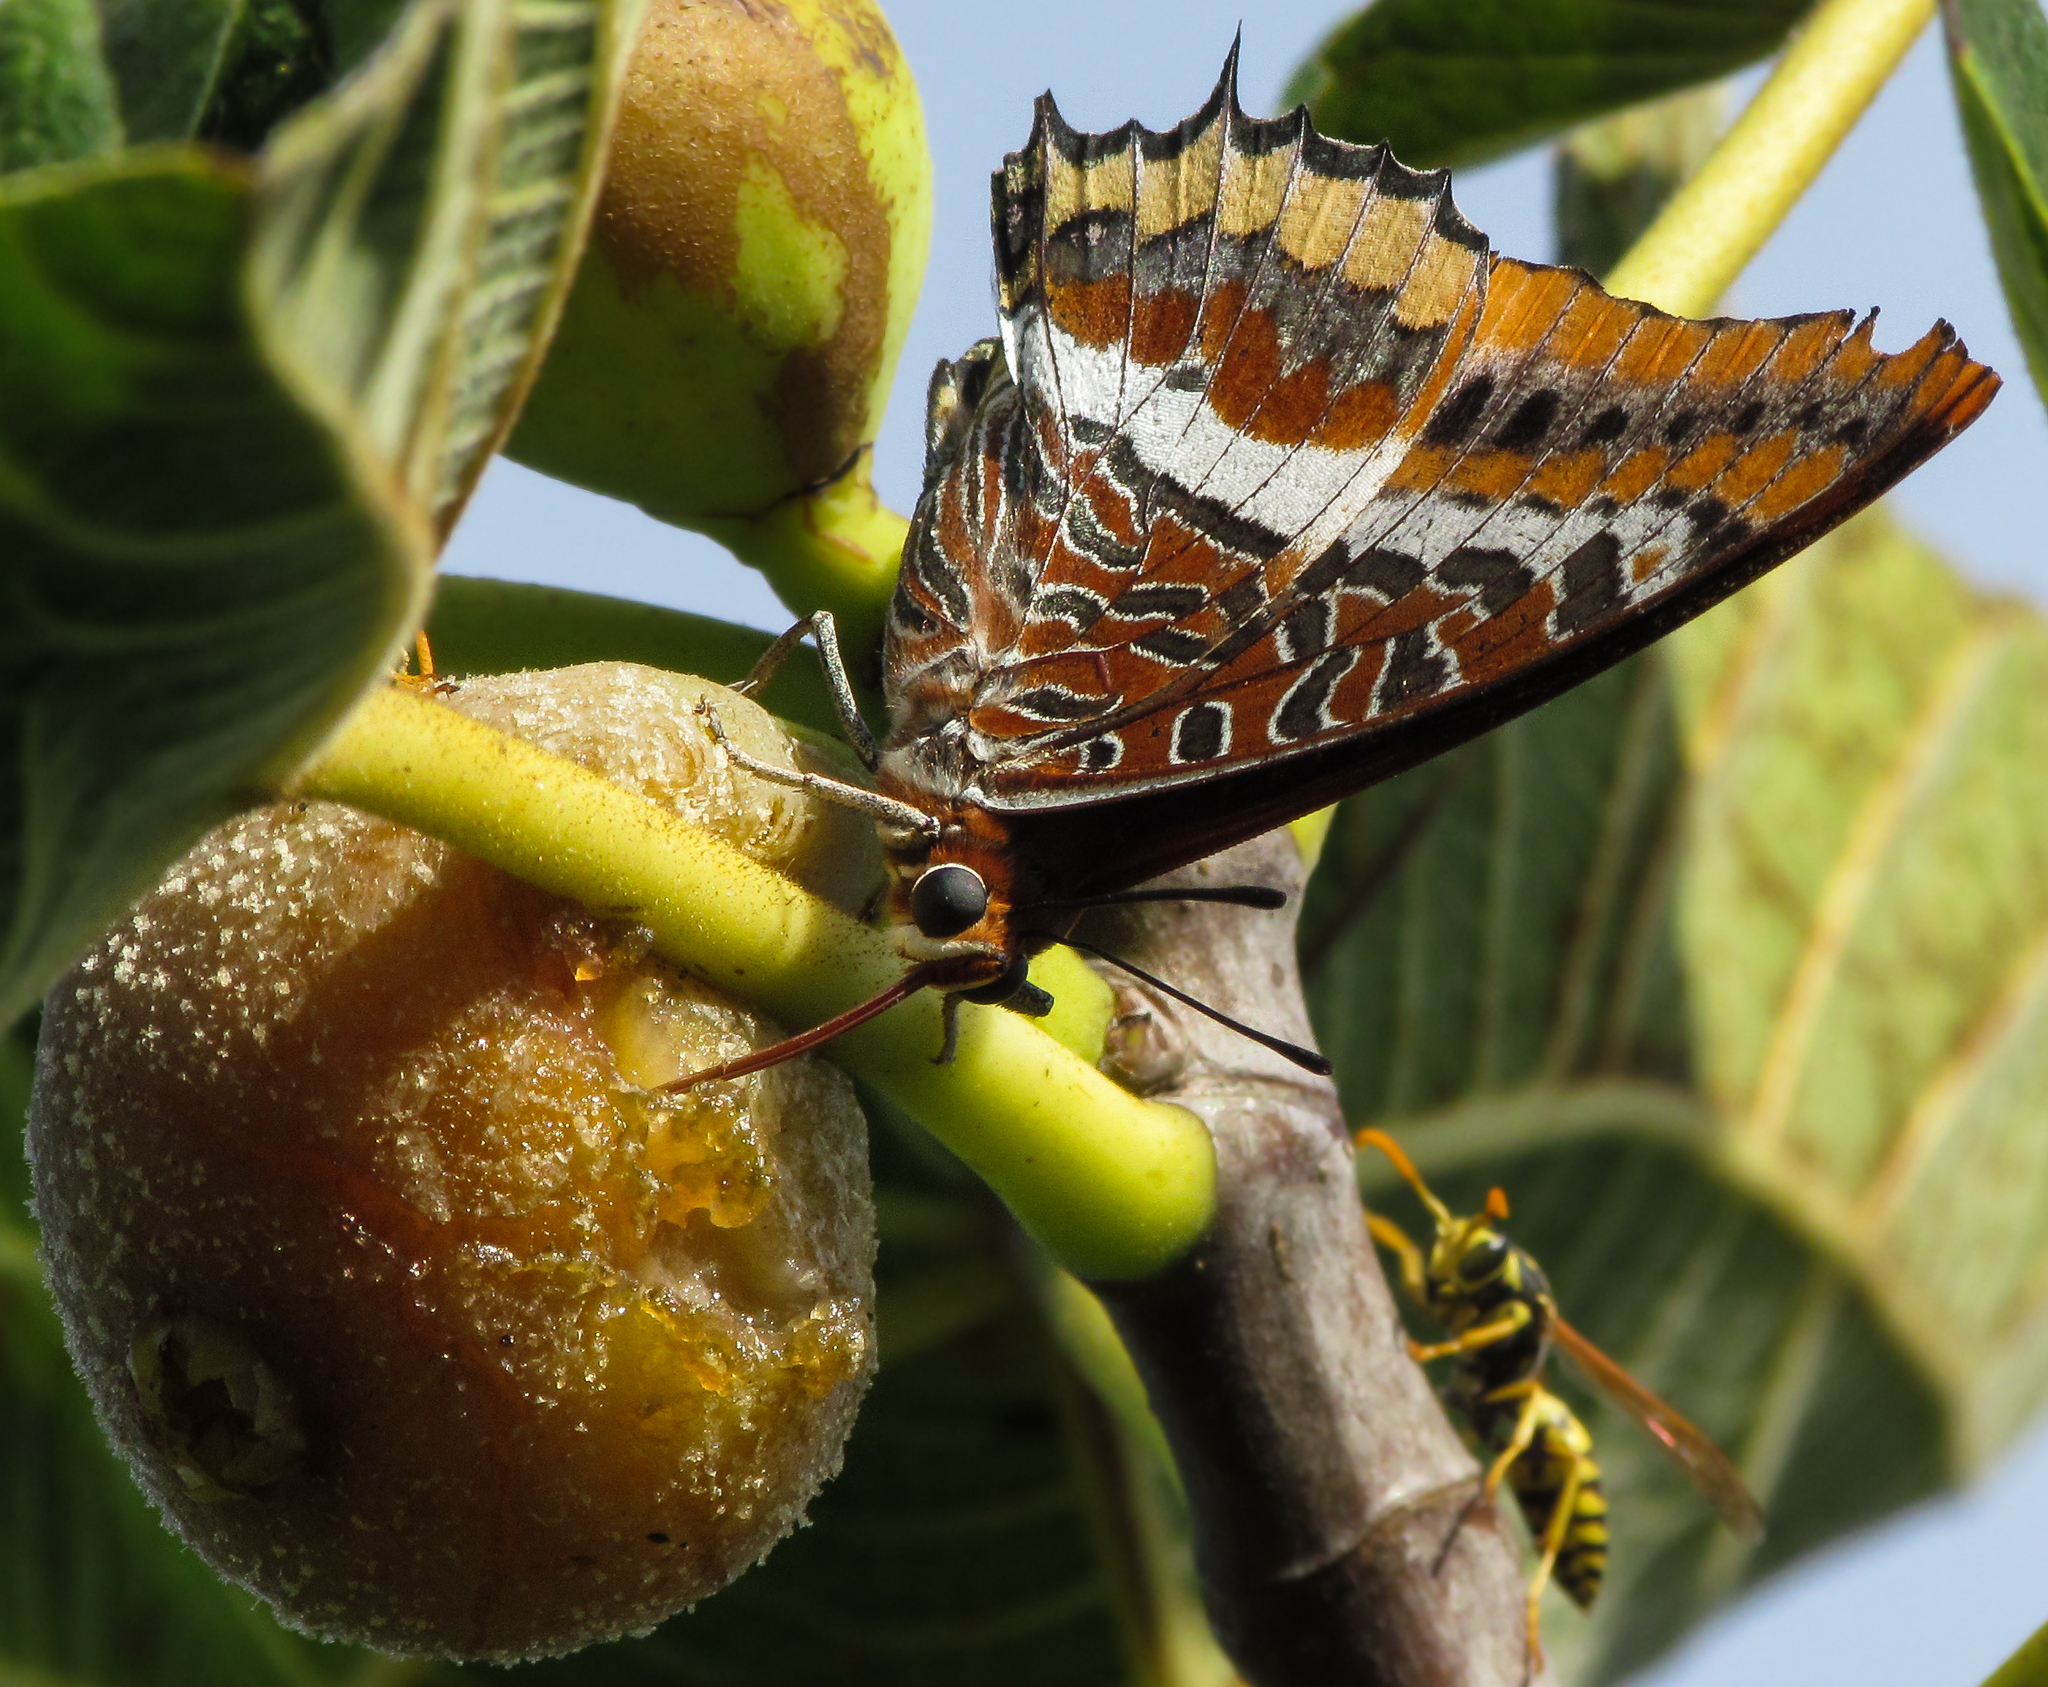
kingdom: Animalia
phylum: Arthropoda
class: Insecta
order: Lepidoptera
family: Nymphalidae
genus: Charaxes
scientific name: Charaxes jasius
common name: Two tailed pasha
